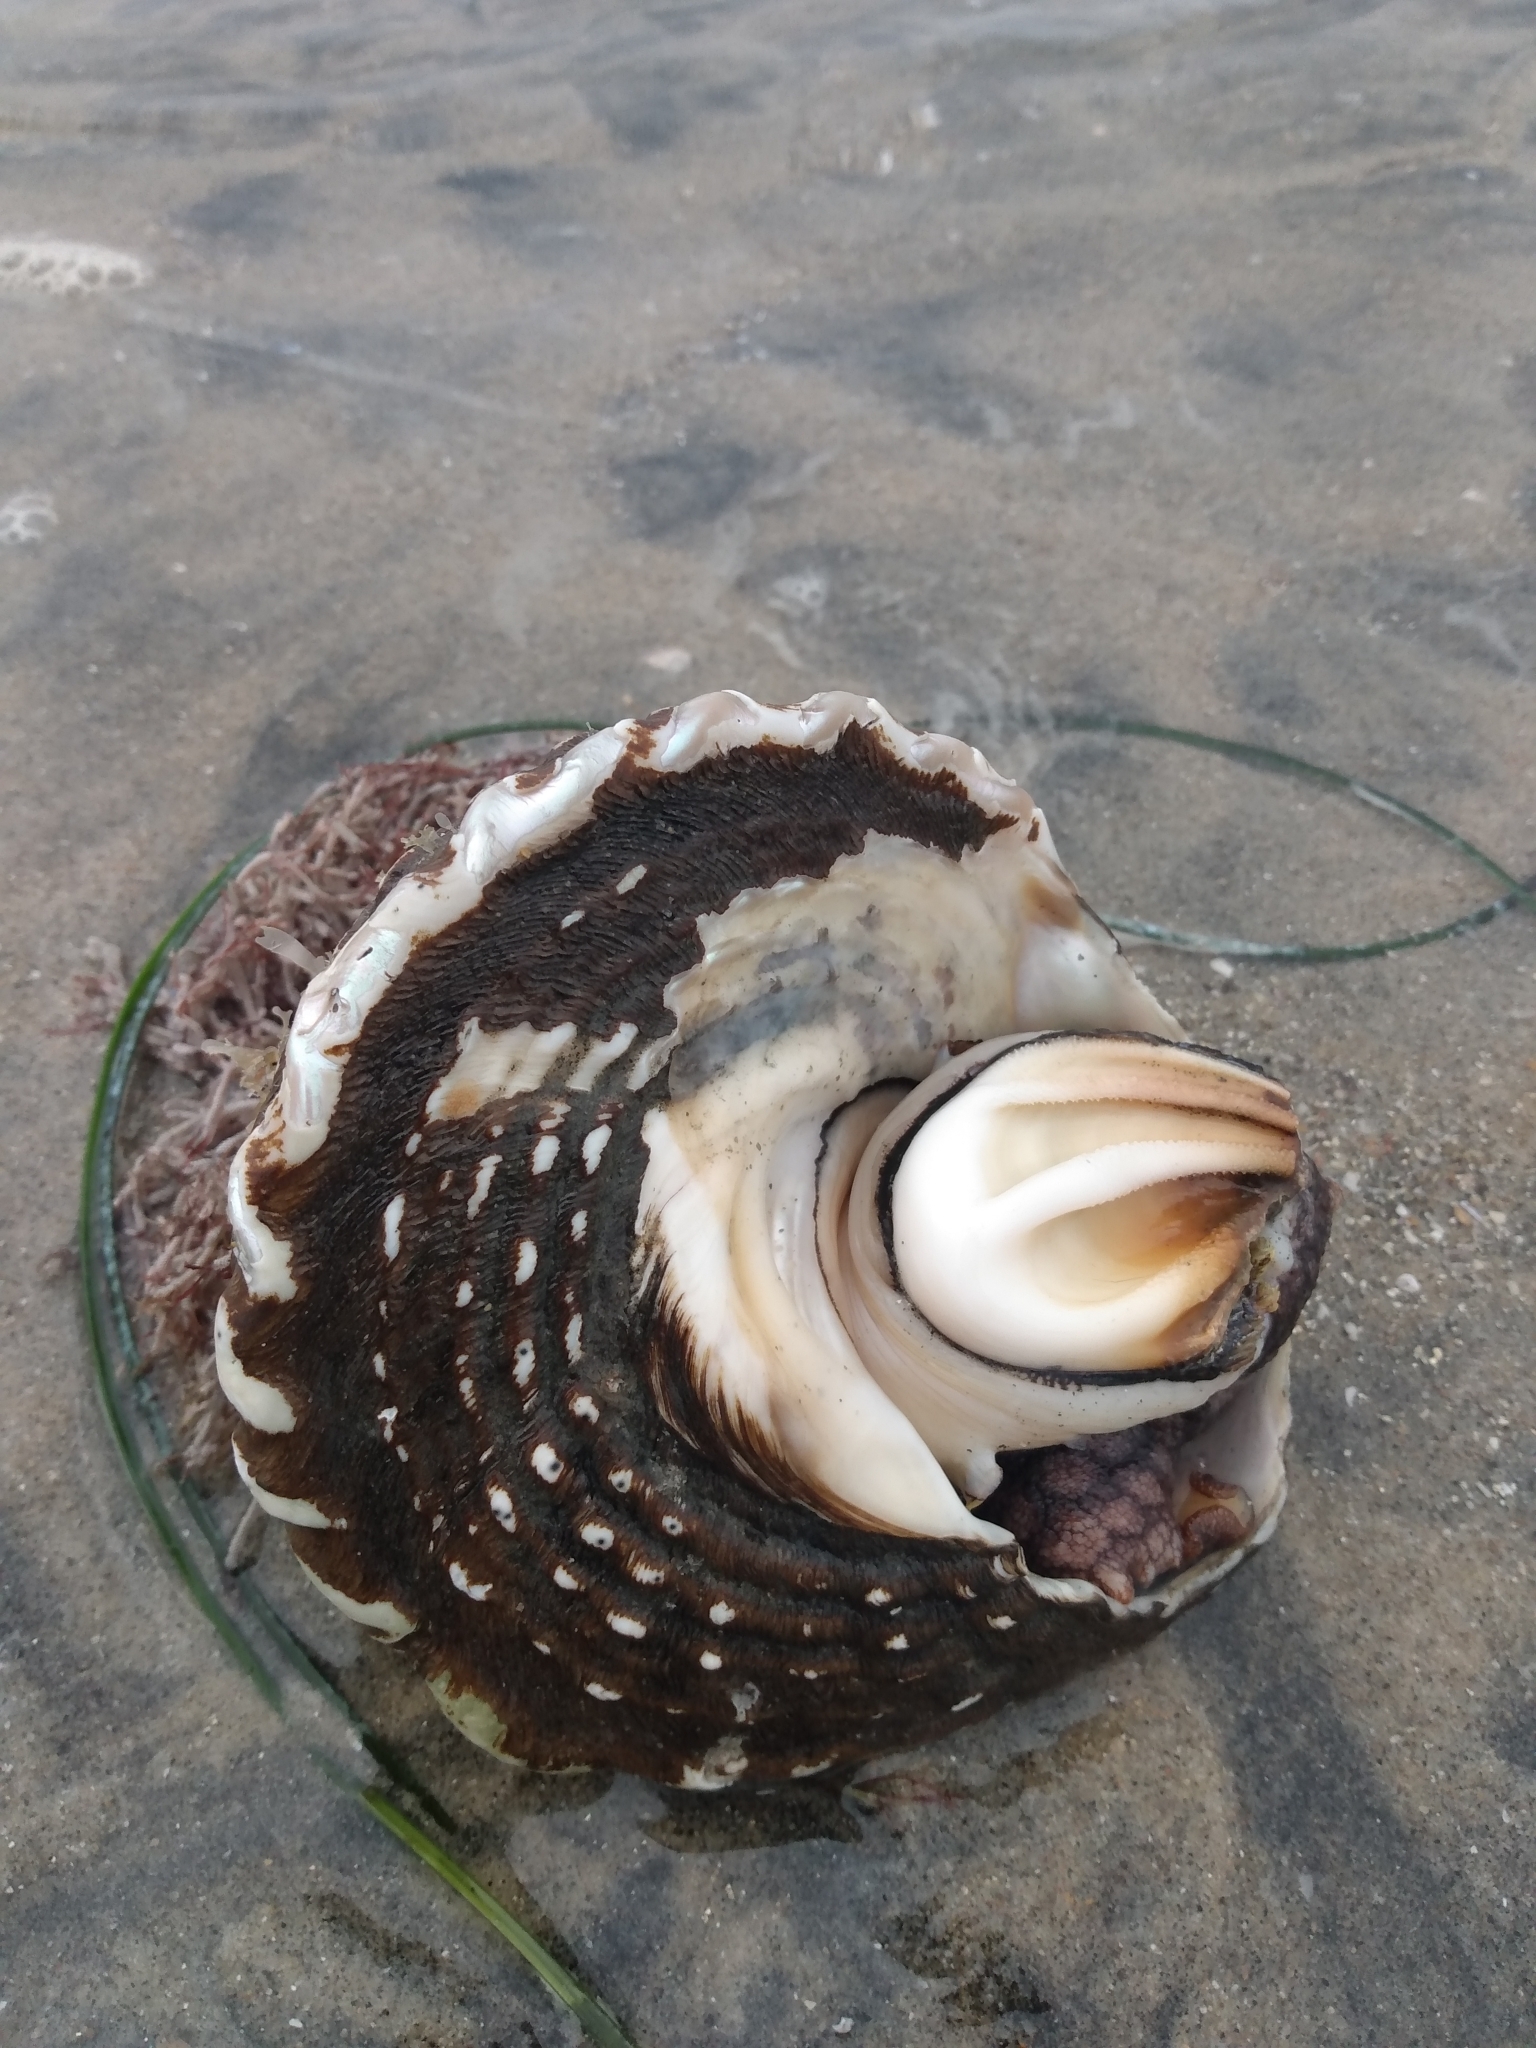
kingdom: Animalia
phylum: Mollusca
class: Gastropoda
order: Trochida
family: Turbinidae
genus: Megastraea
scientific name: Megastraea undosa
